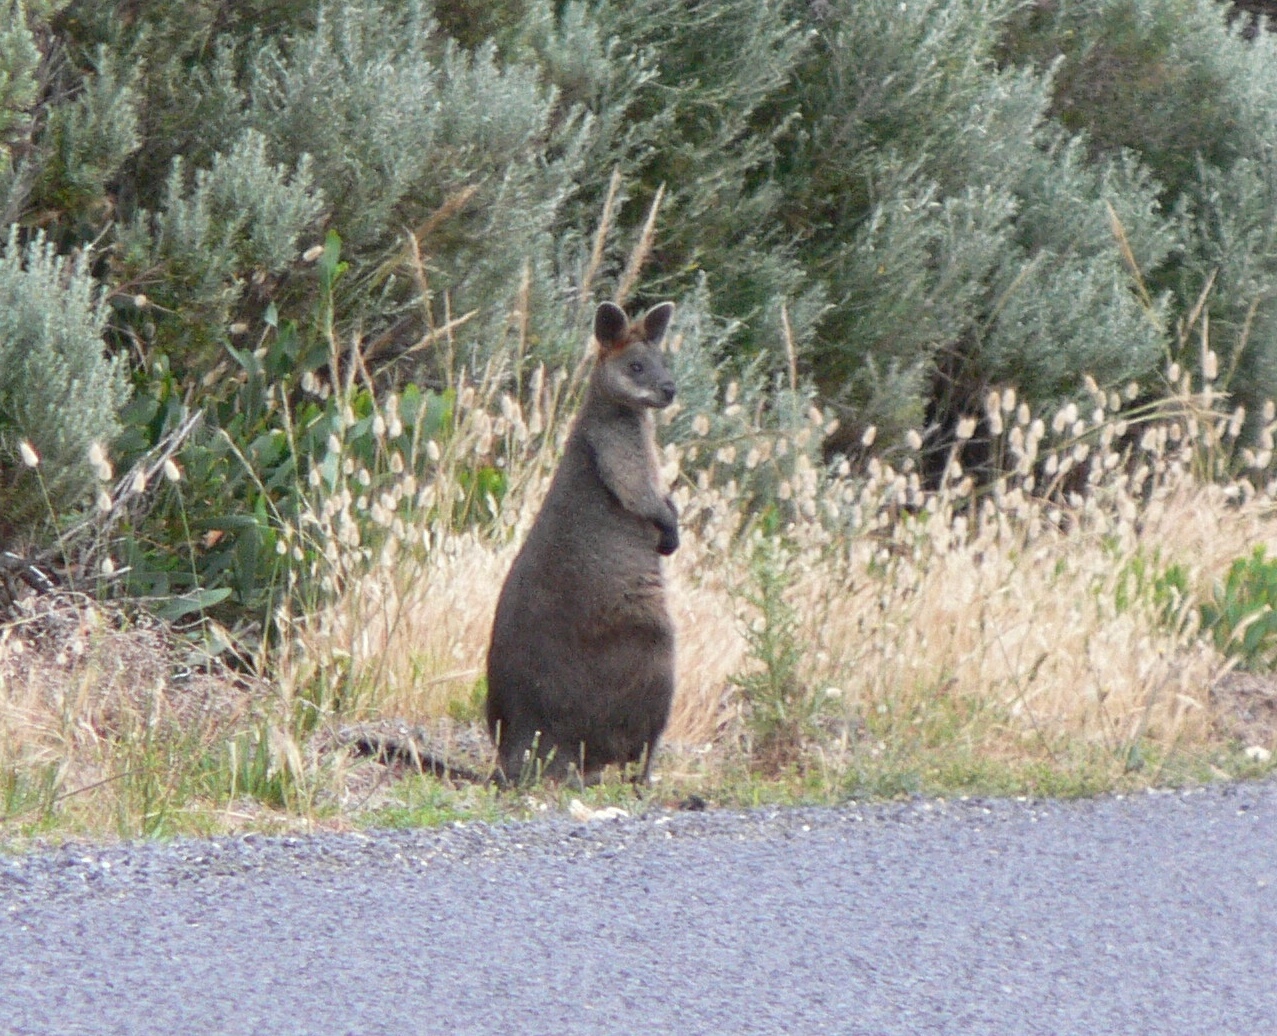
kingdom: Animalia
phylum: Chordata
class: Mammalia
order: Diprotodontia
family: Macropodidae
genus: Wallabia
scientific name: Wallabia bicolor
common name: Swamp wallaby
